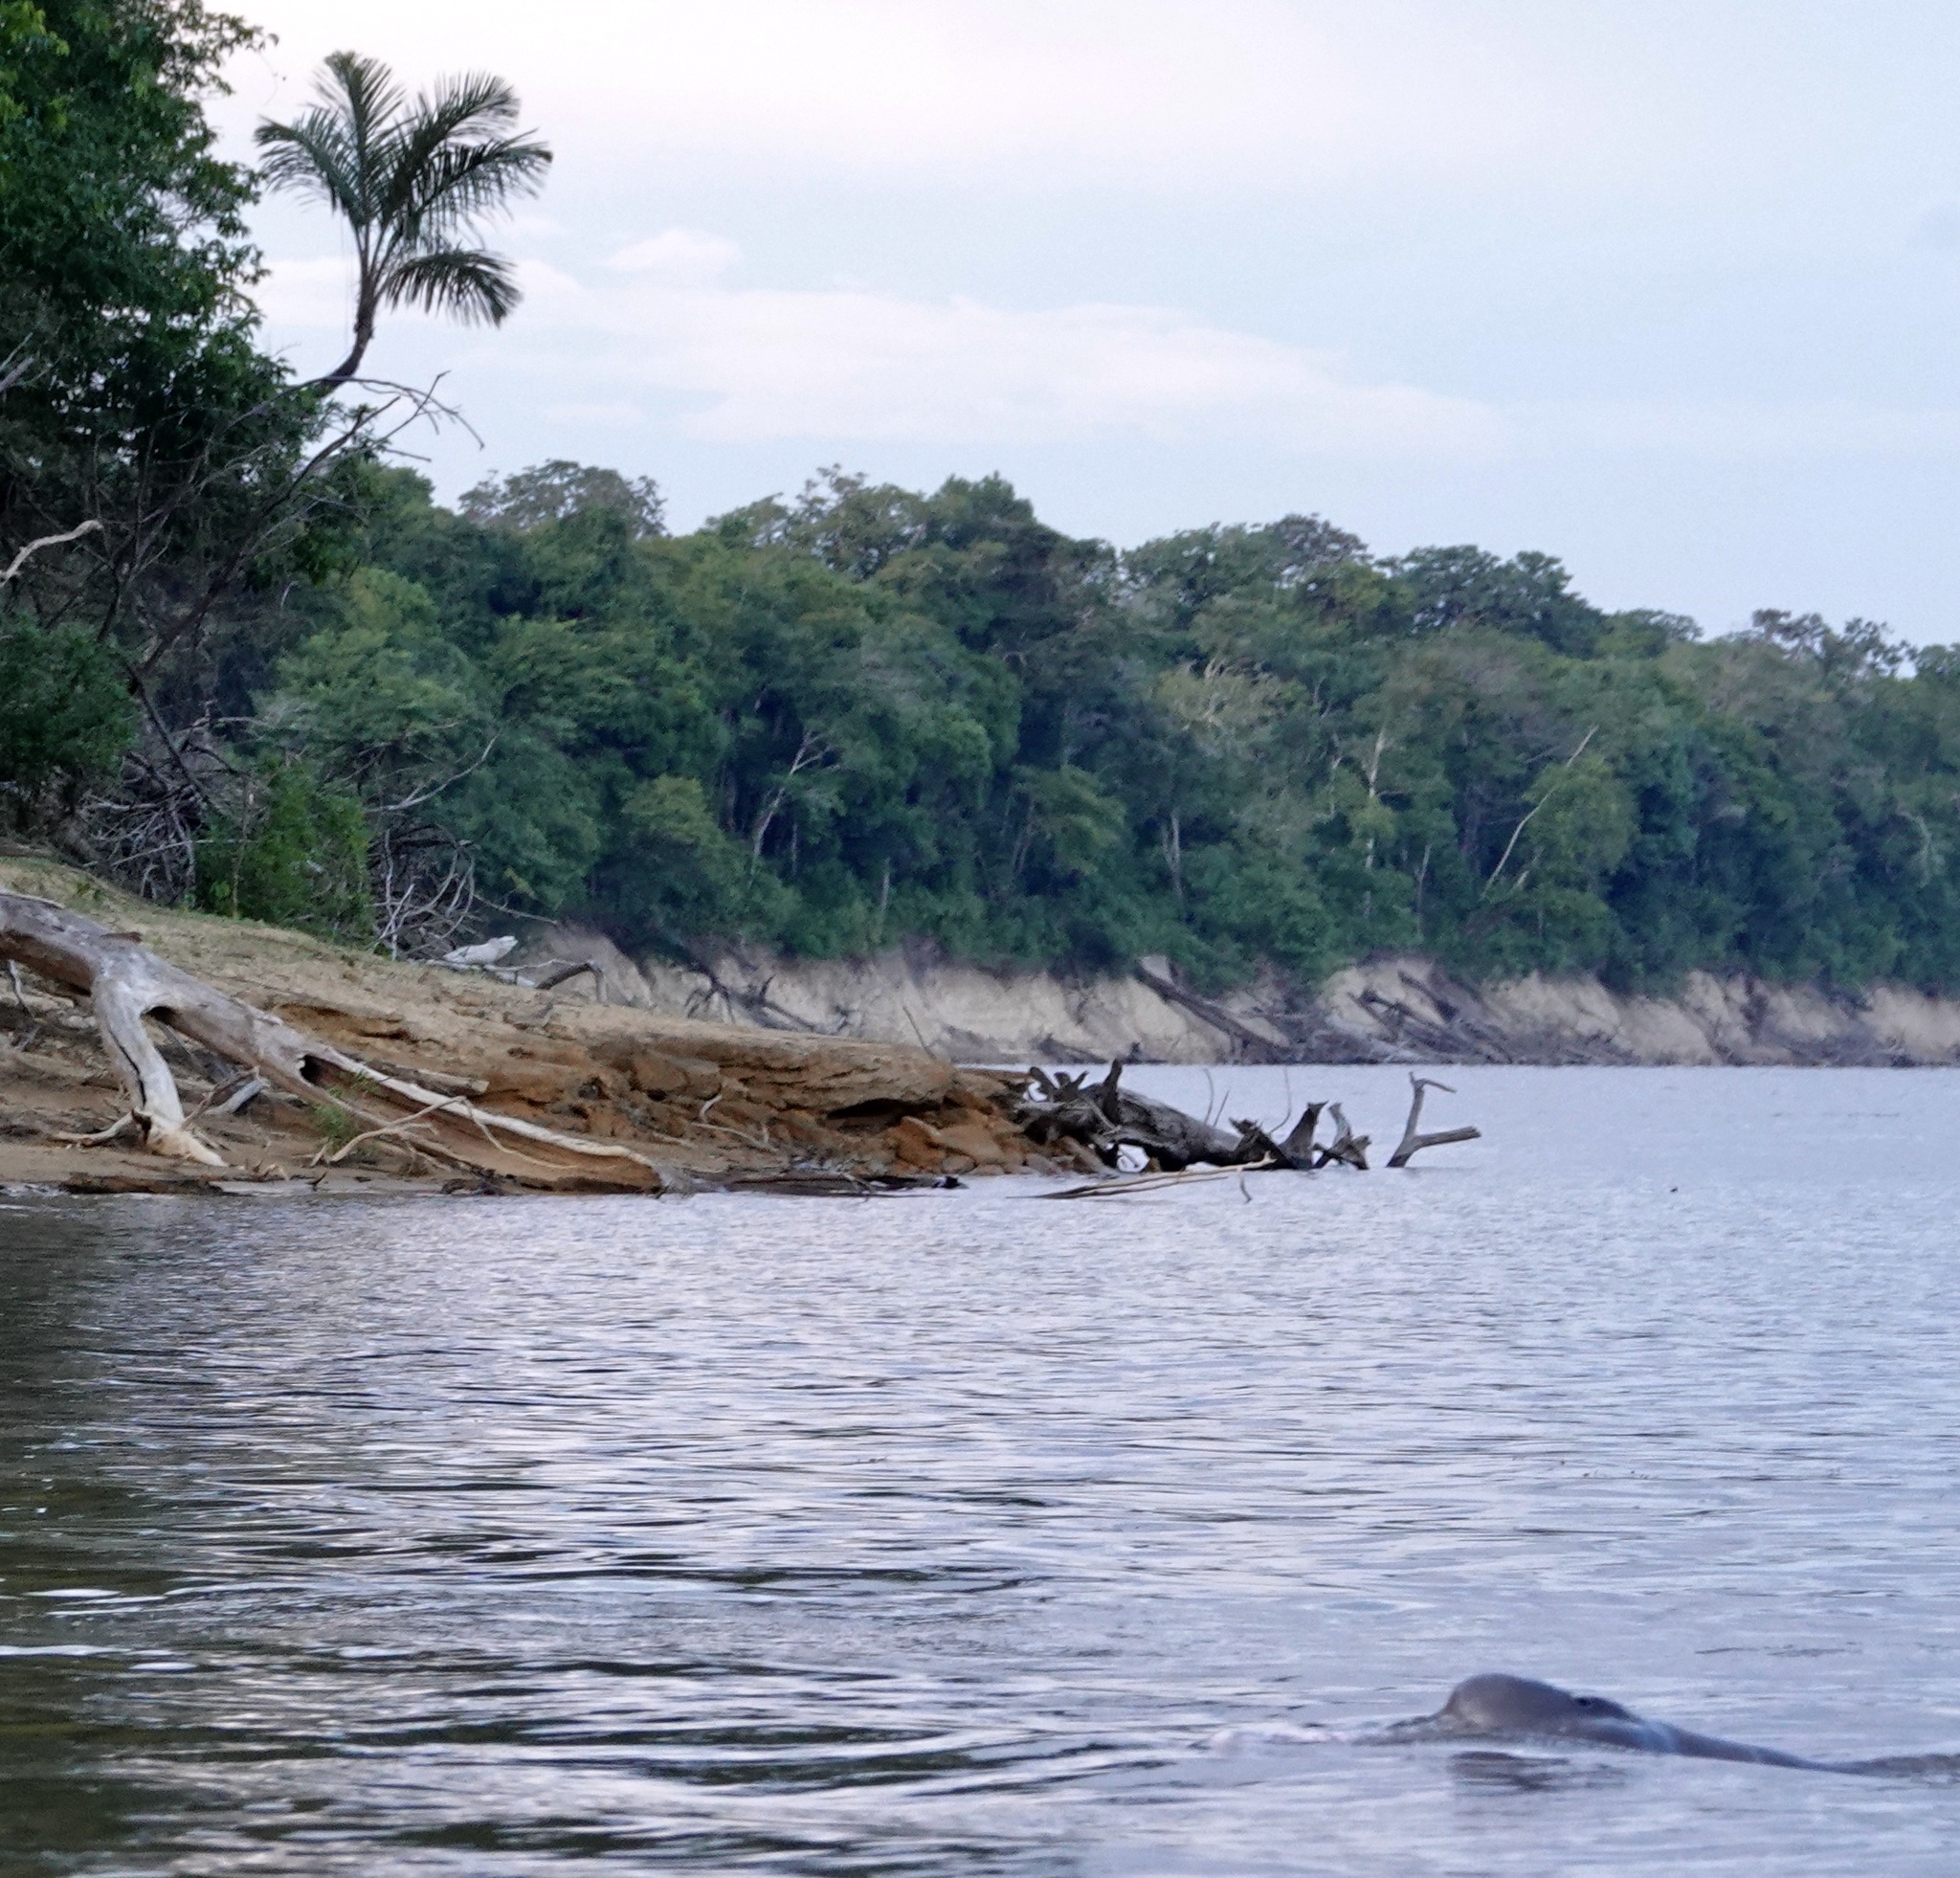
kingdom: Animalia
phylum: Chordata
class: Mammalia
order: Cetacea
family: Iniidae
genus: Inia
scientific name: Inia geoffrensis
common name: Amazon river dolphin
